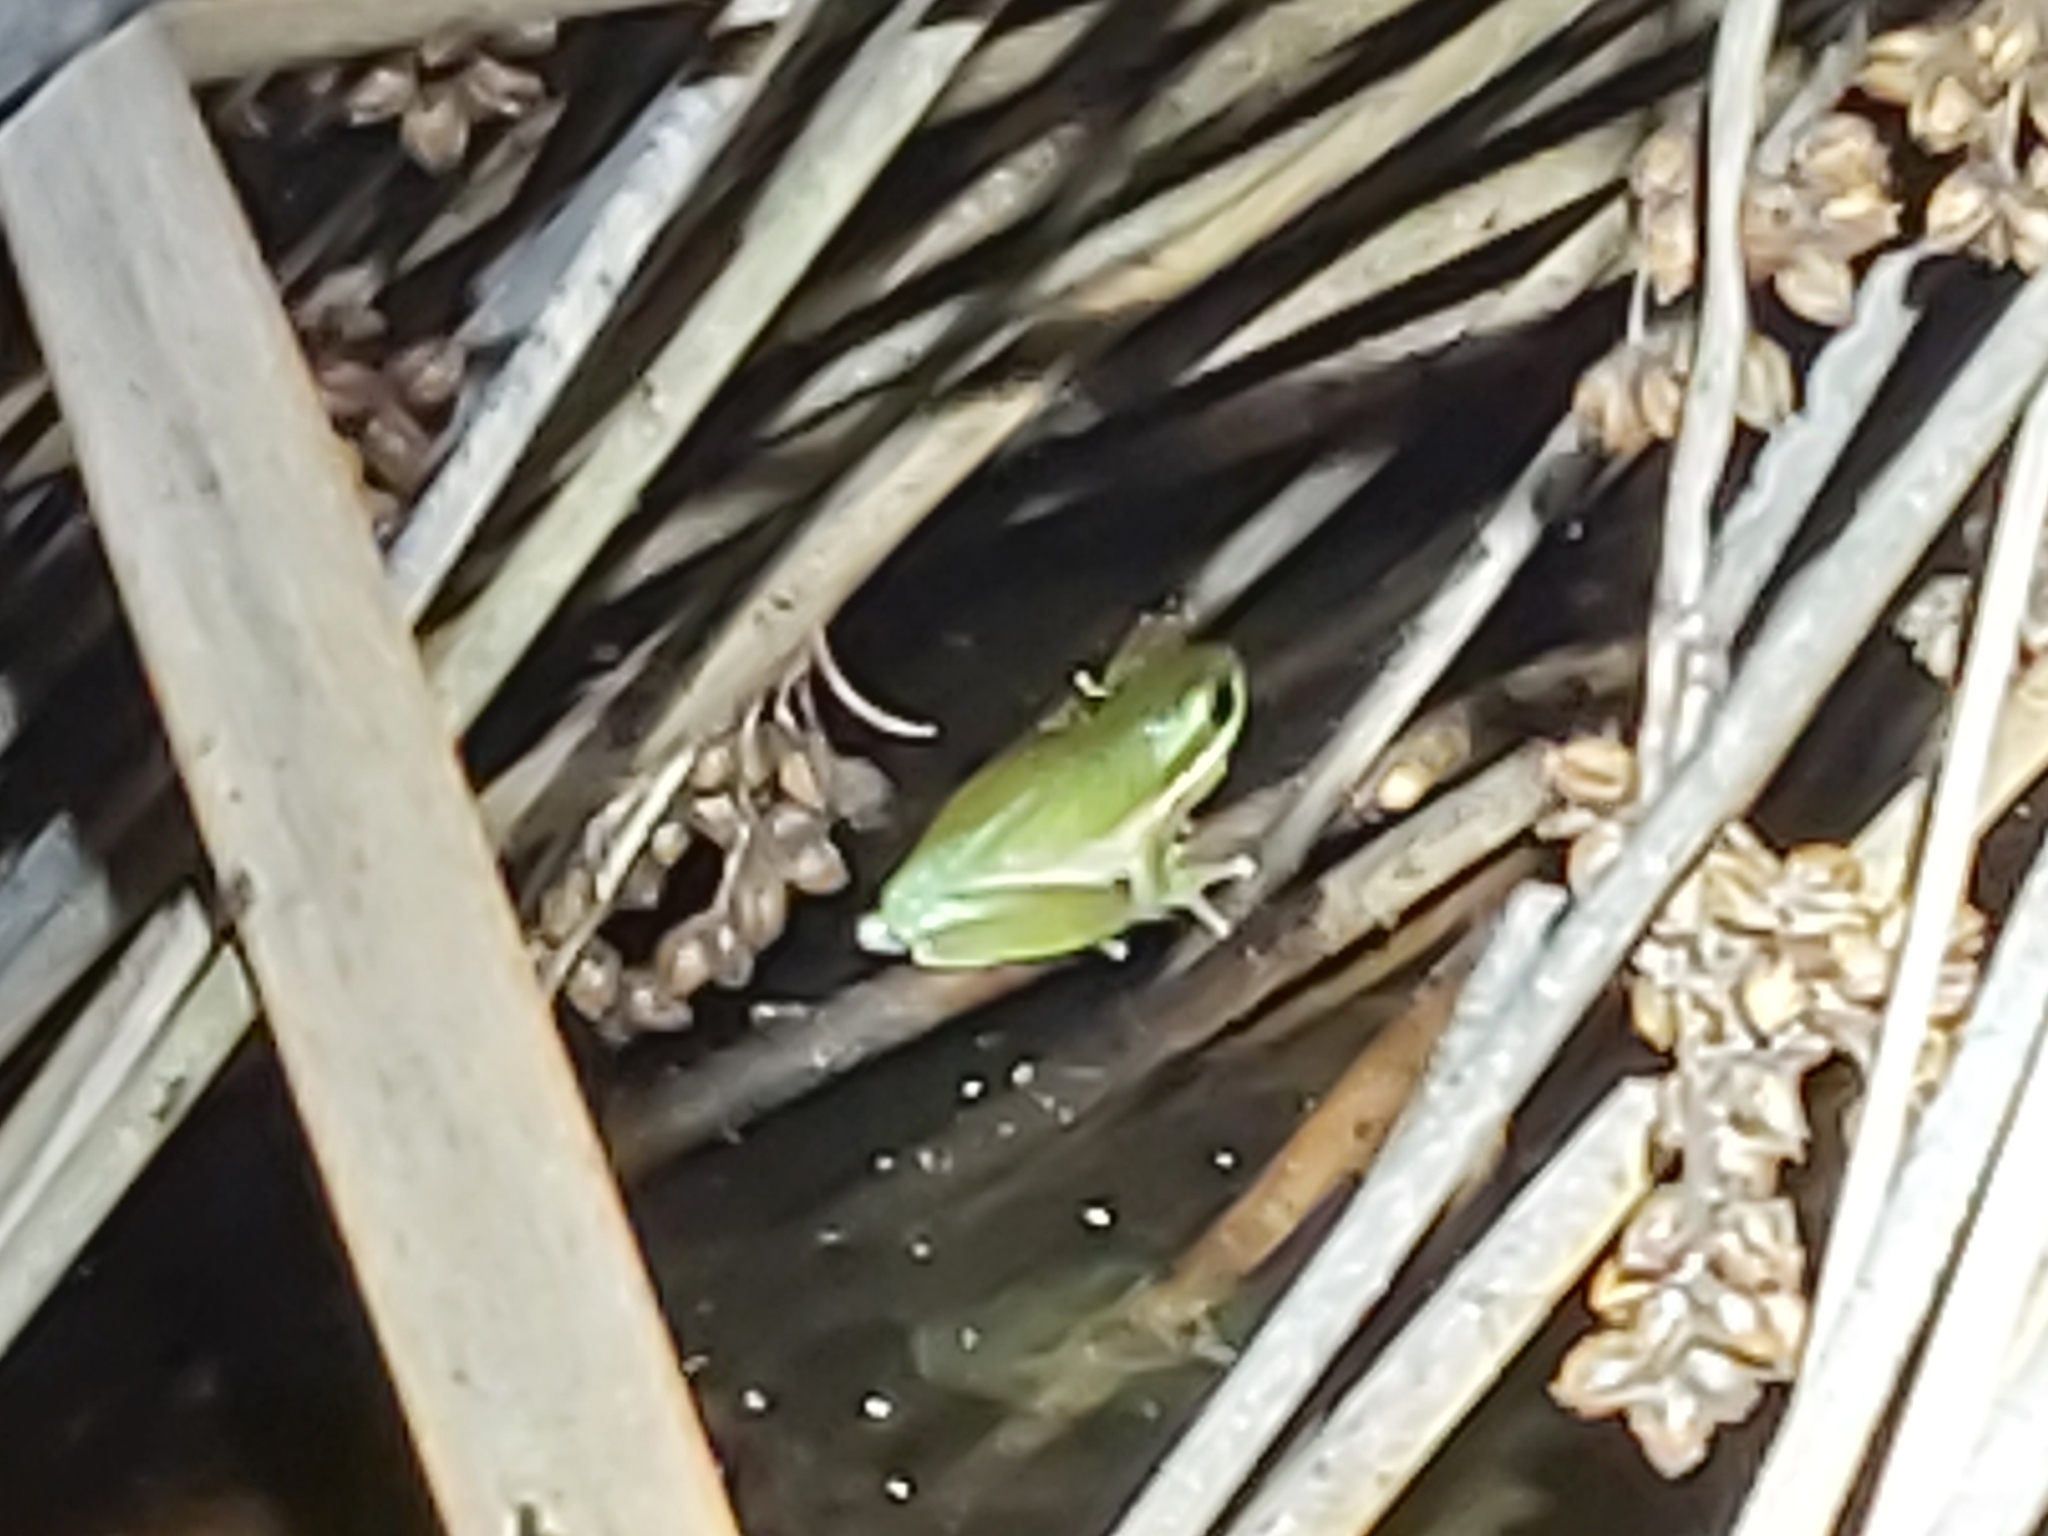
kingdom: Animalia
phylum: Chordata
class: Amphibia
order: Anura
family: Pelodryadidae
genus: Litoria
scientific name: Litoria fallax
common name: Eastern dwarf treefrog
